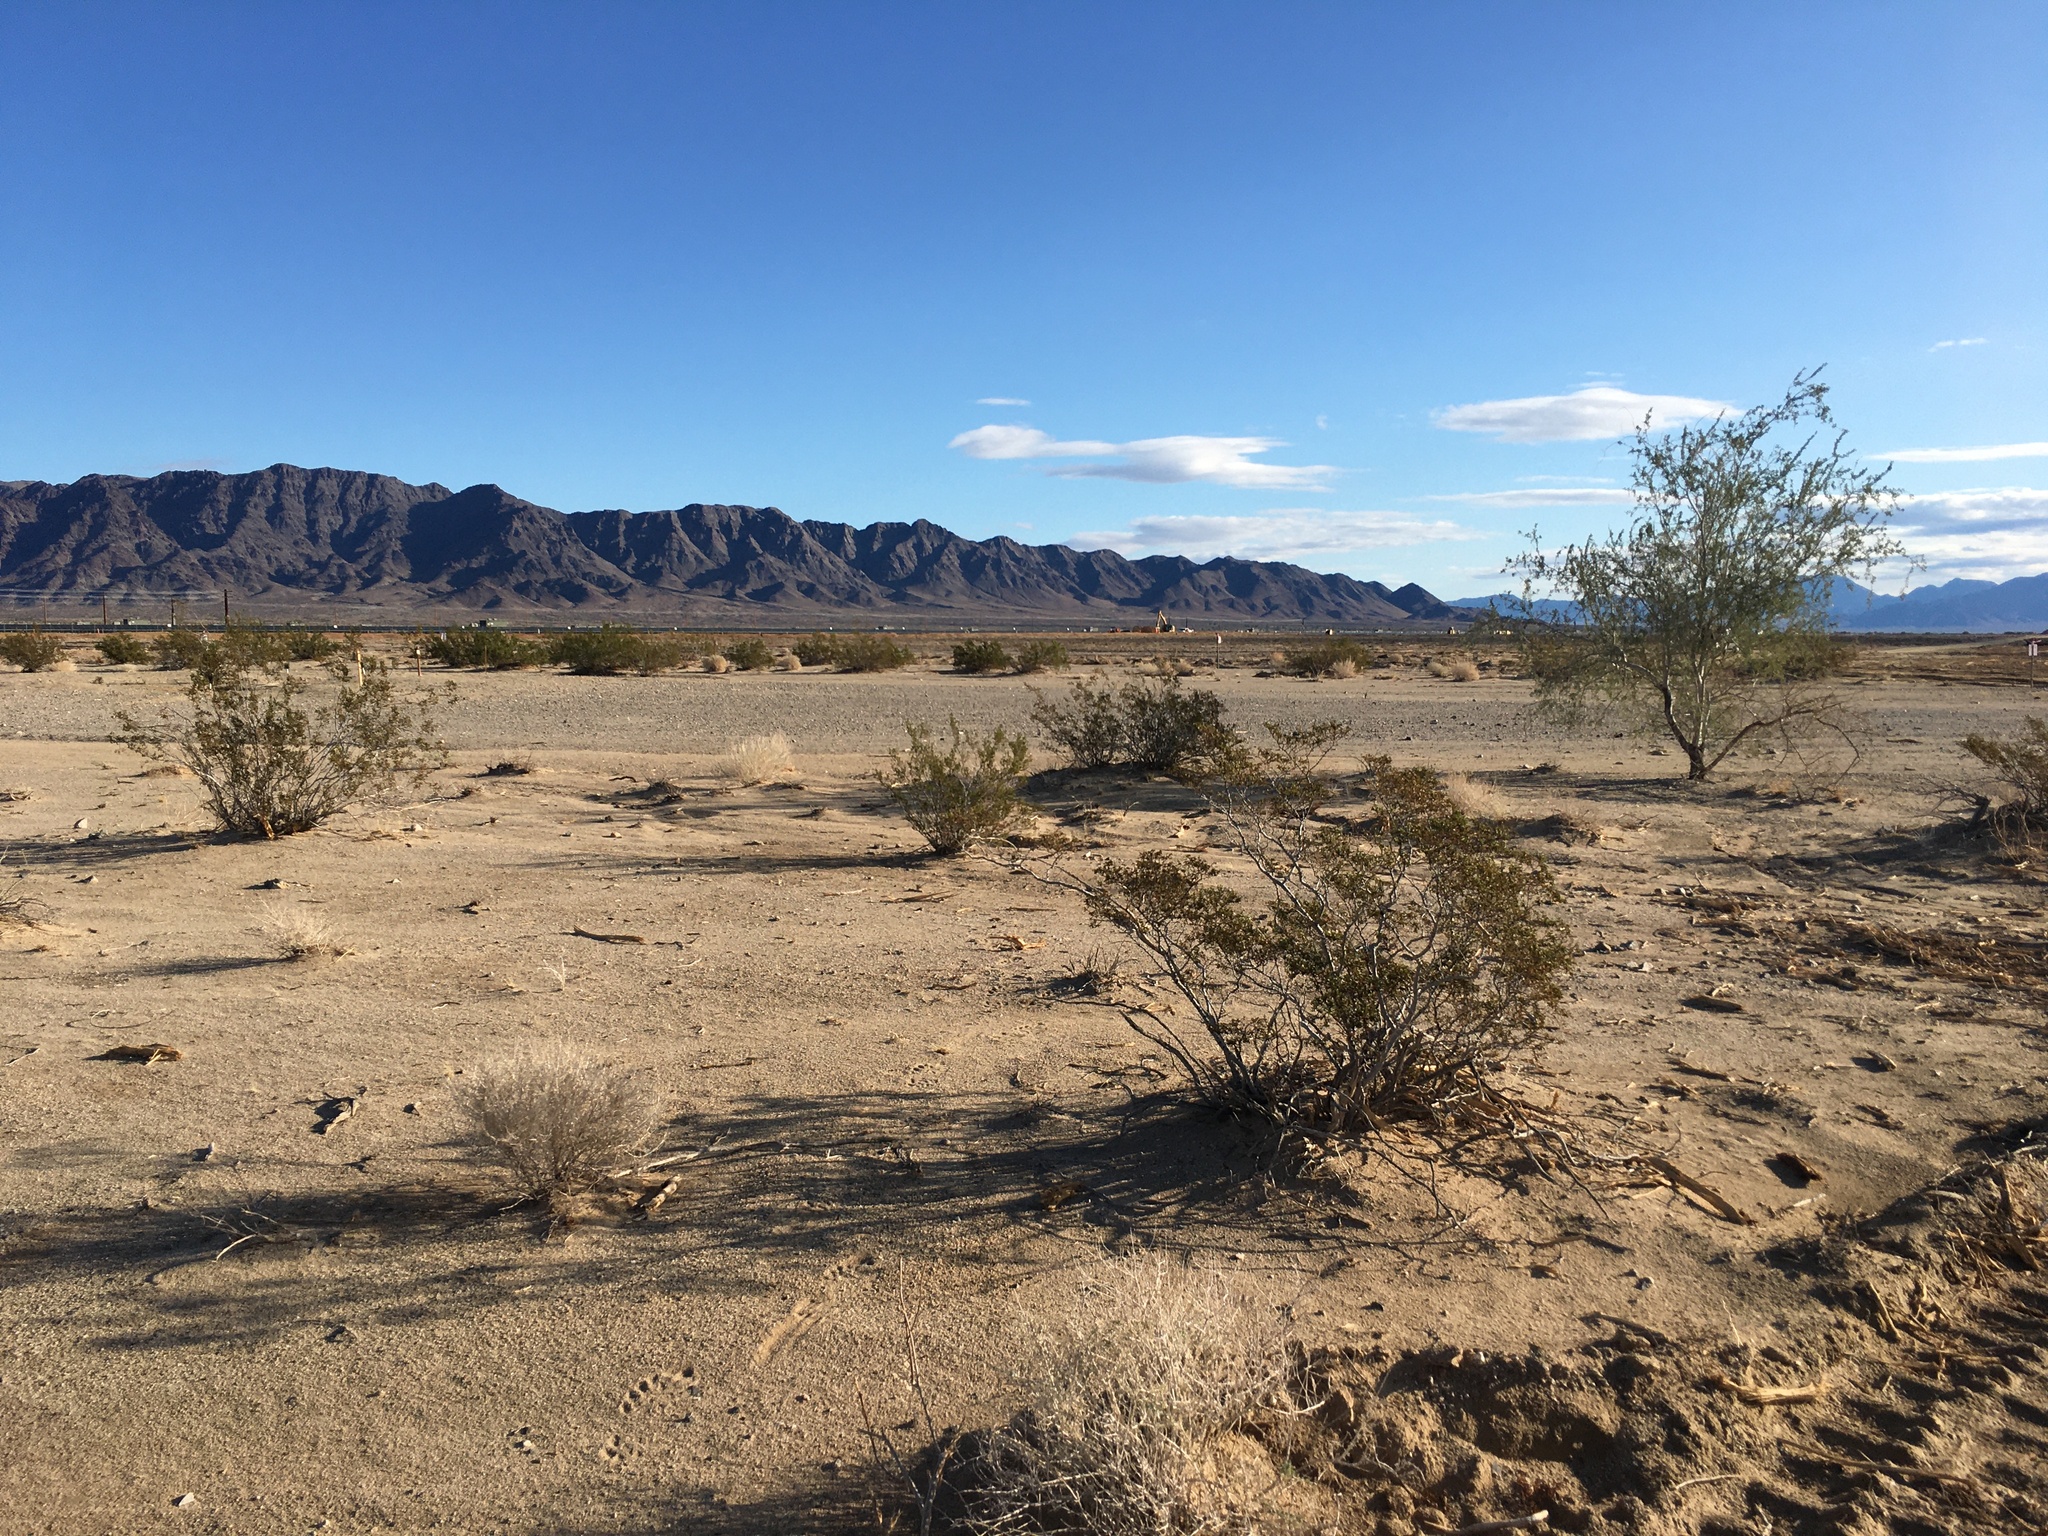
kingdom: Plantae
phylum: Tracheophyta
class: Magnoliopsida
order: Zygophyllales
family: Zygophyllaceae
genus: Larrea
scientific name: Larrea tridentata
